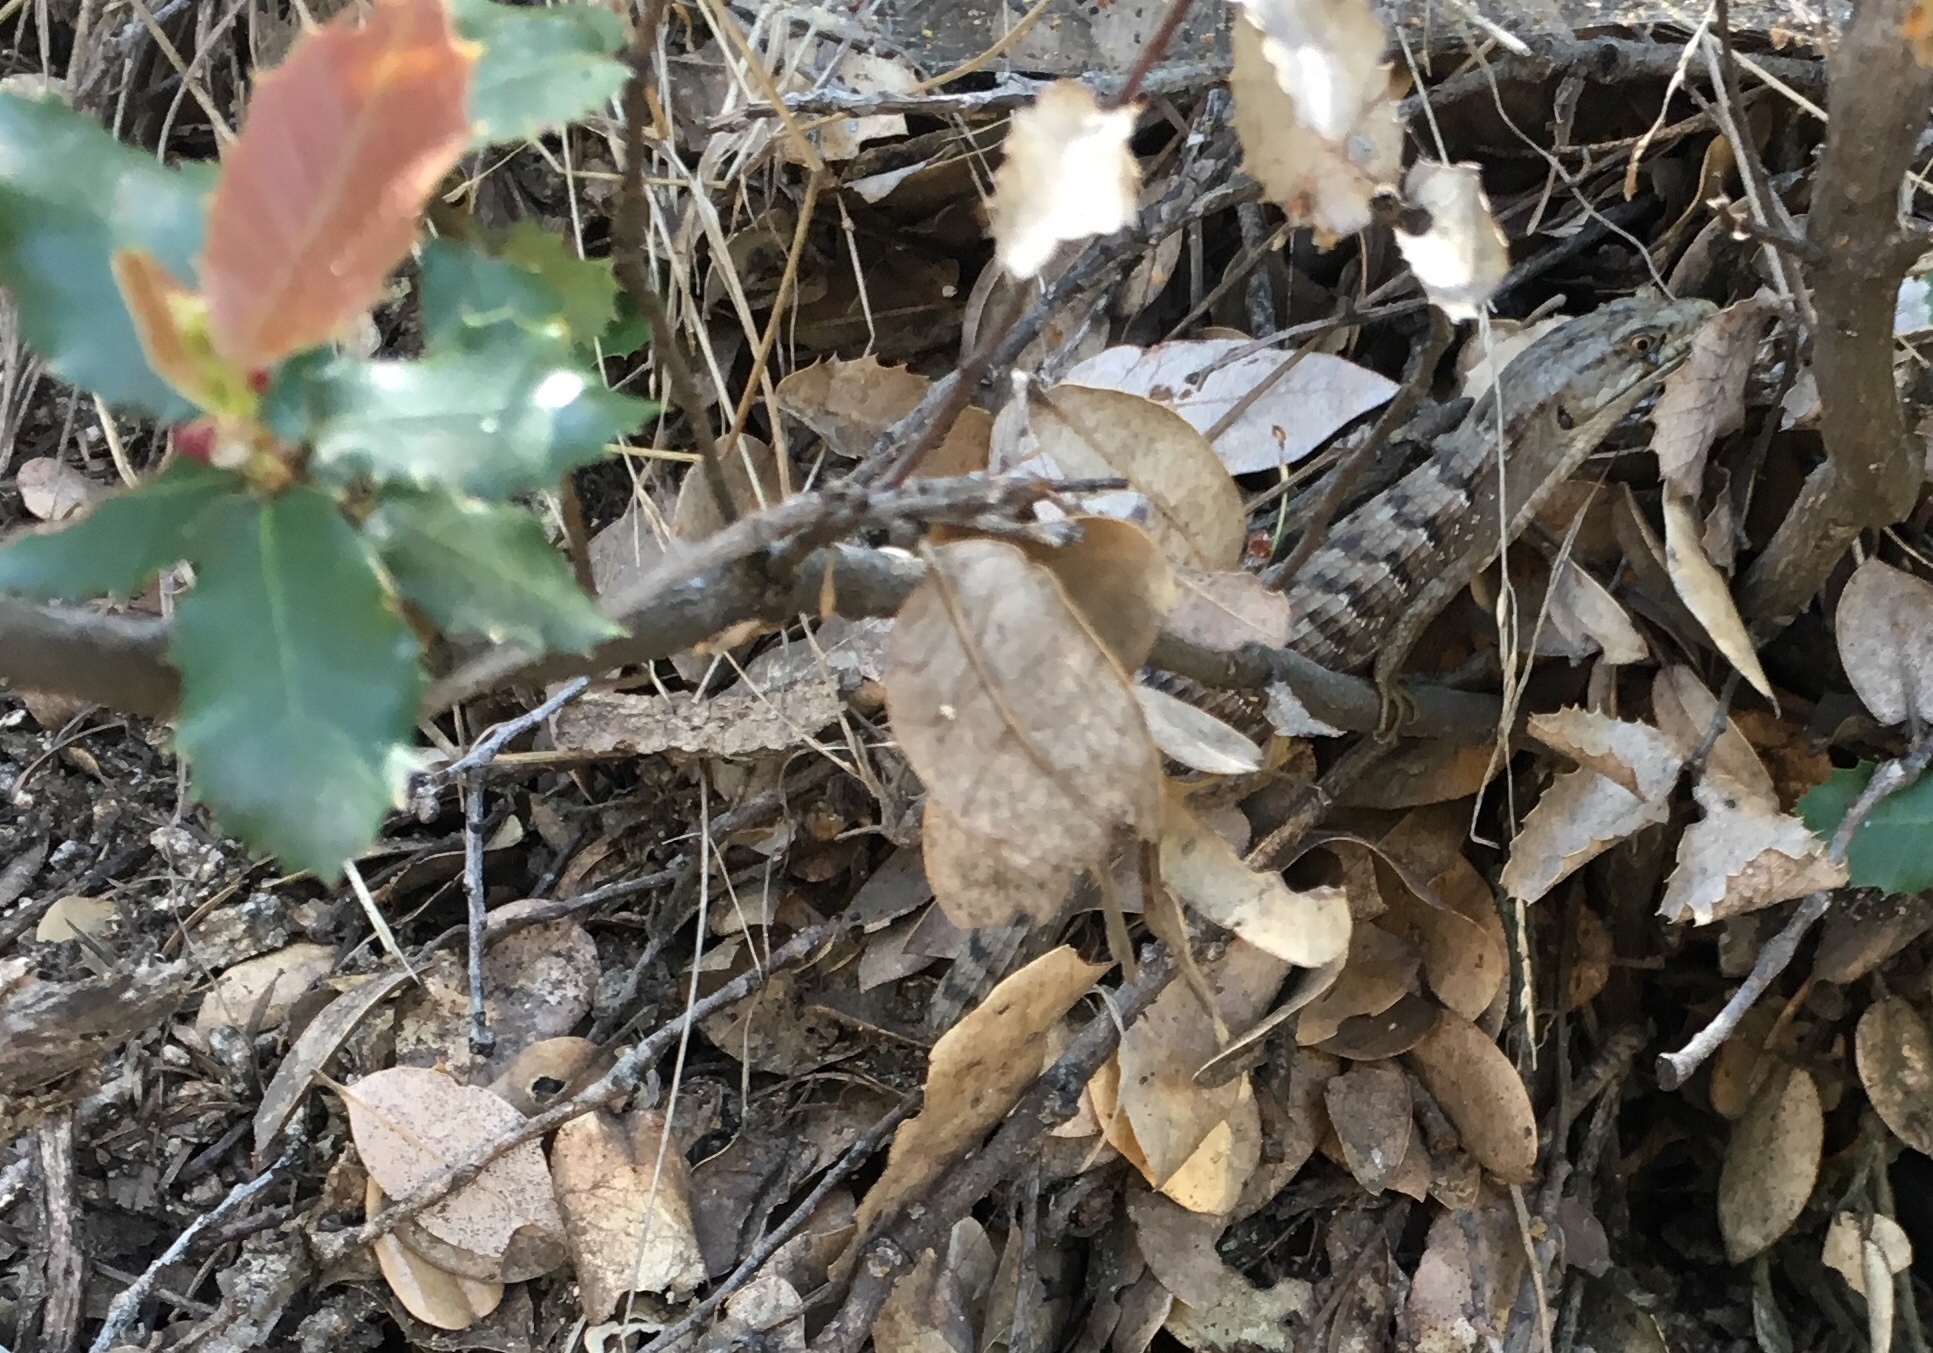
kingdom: Animalia
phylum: Chordata
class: Squamata
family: Anguidae
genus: Elgaria
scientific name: Elgaria multicarinata
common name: Southern alligator lizard
